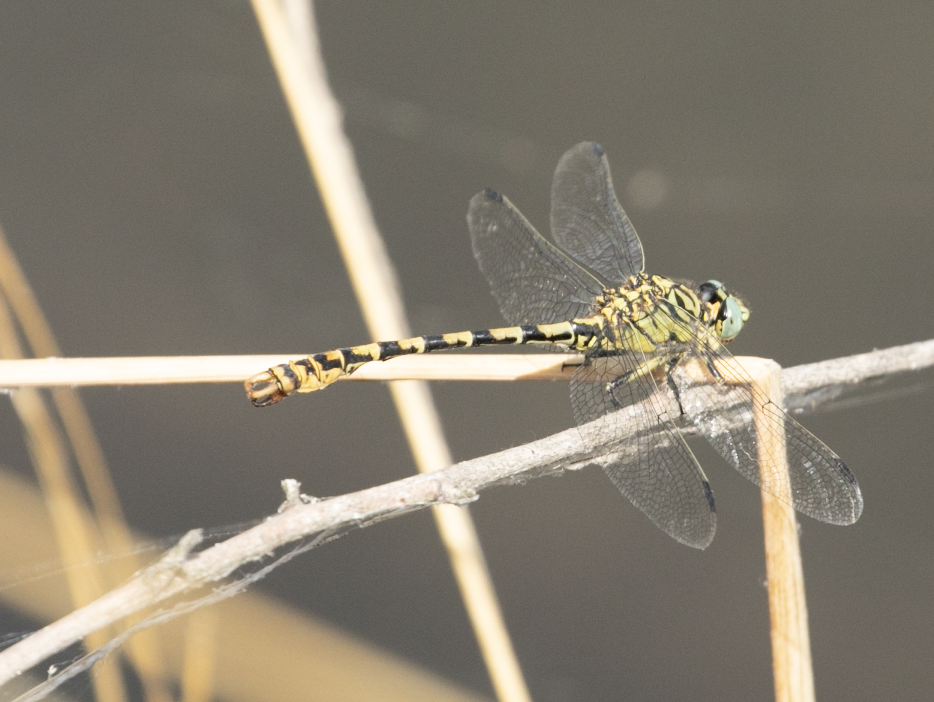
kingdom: Animalia
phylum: Arthropoda
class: Insecta
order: Odonata
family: Gomphidae
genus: Onychogomphus
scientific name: Onychogomphus forcipatus
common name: Small pincertail
